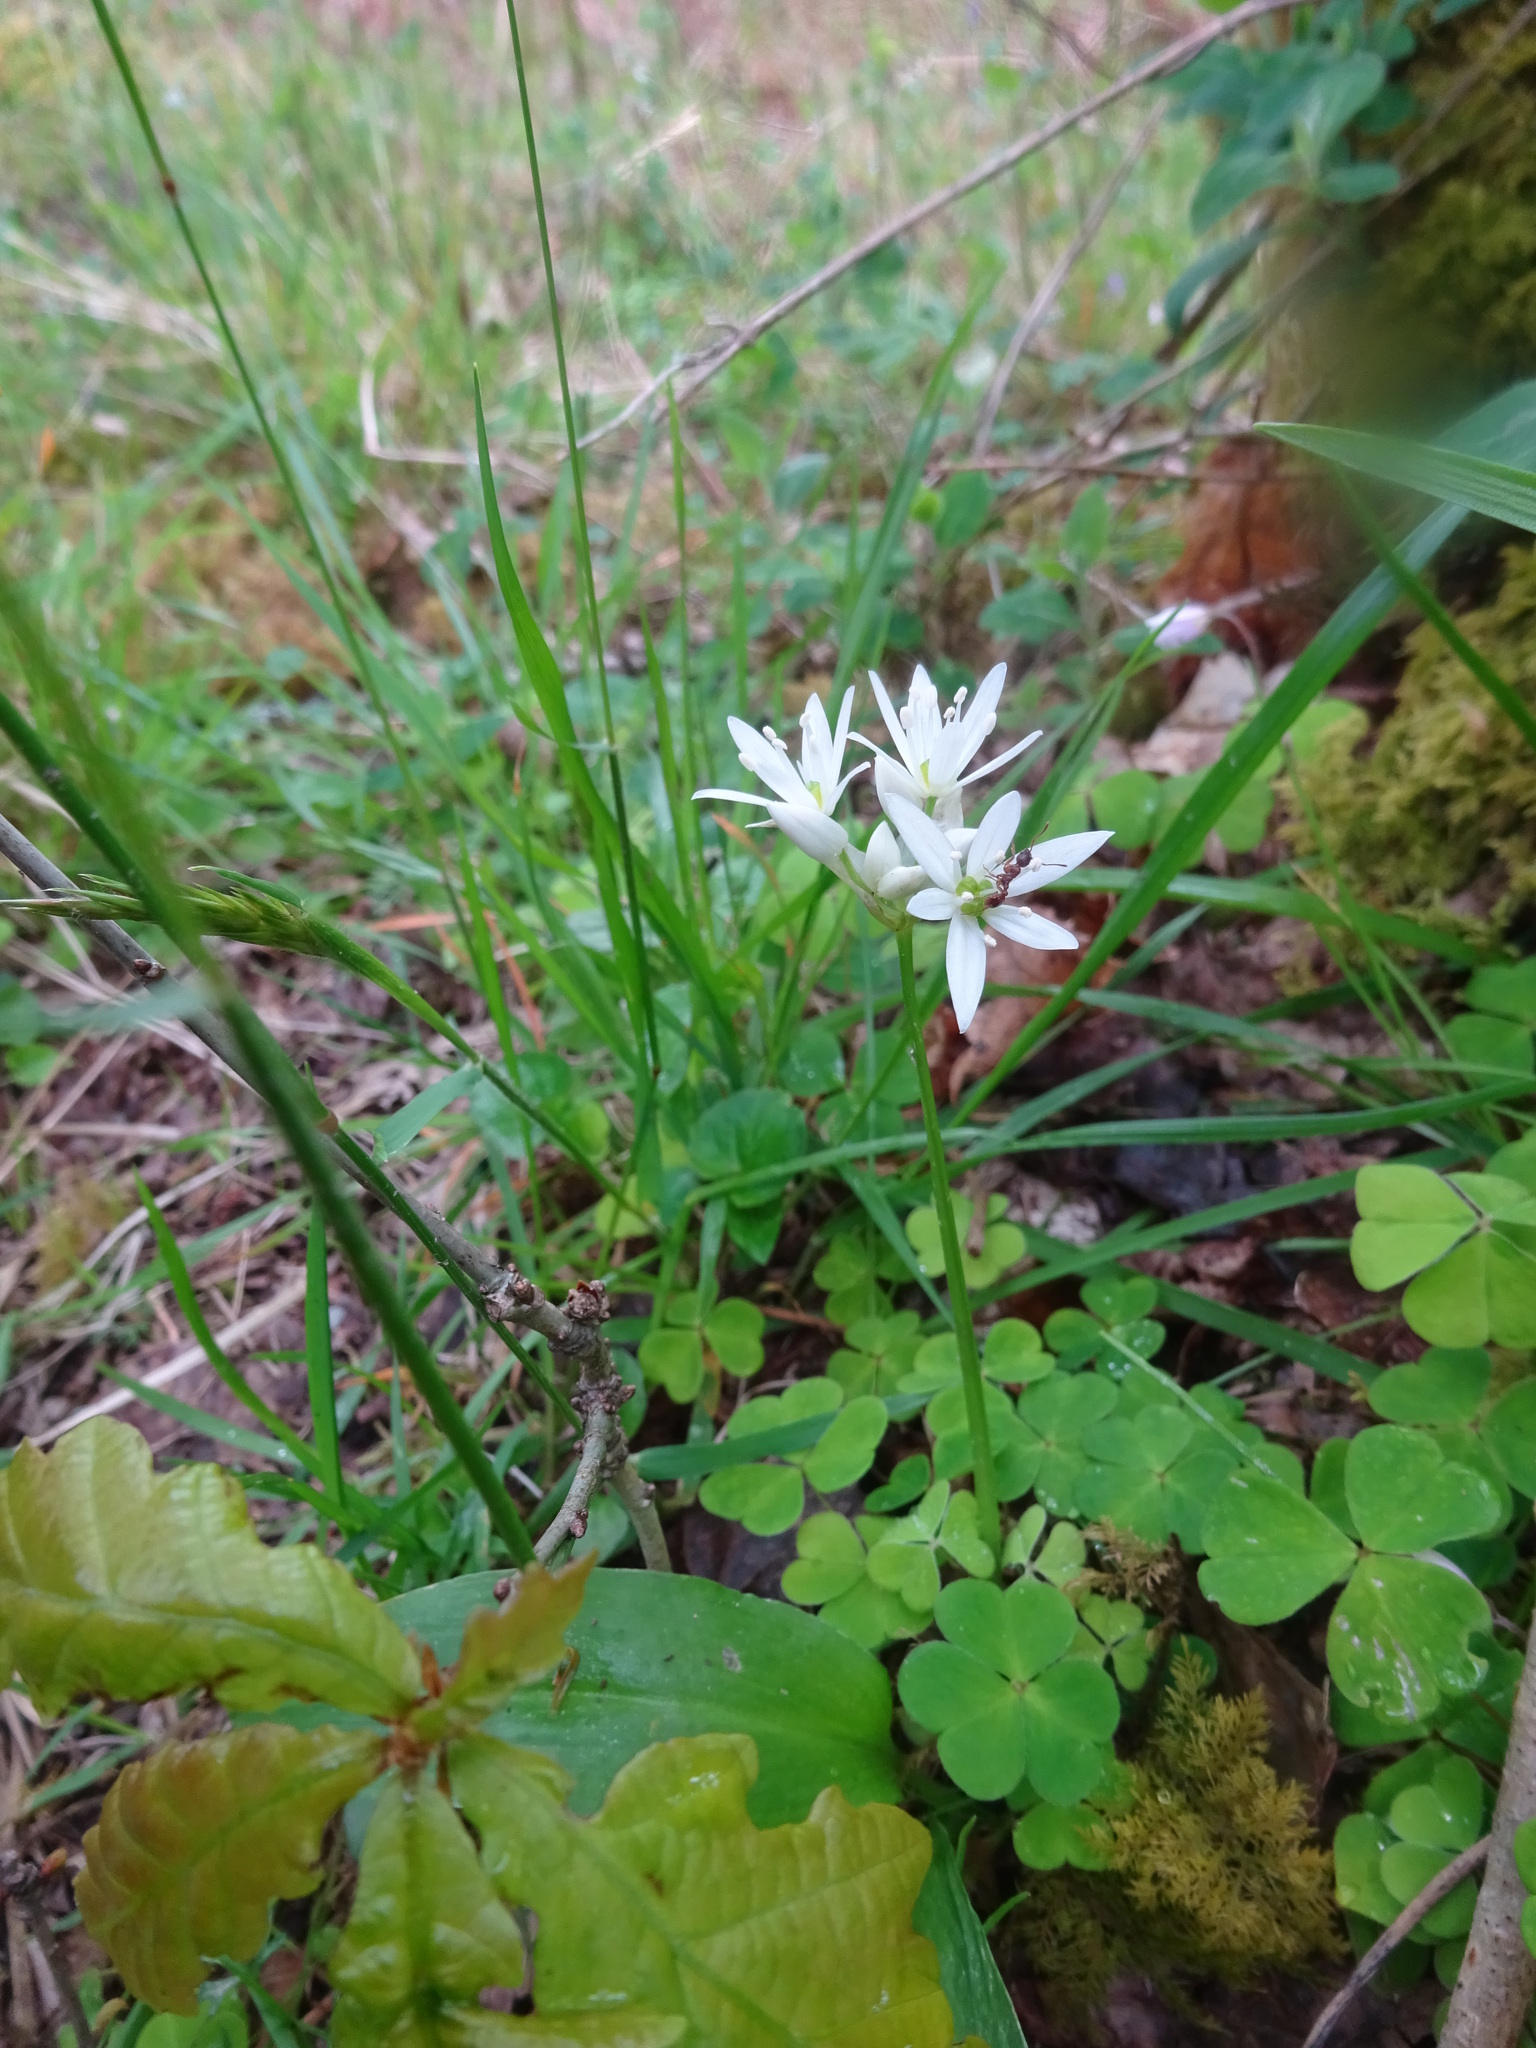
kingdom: Plantae
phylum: Tracheophyta
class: Liliopsida
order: Asparagales
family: Amaryllidaceae
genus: Allium
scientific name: Allium ursinum
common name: Ramsons
